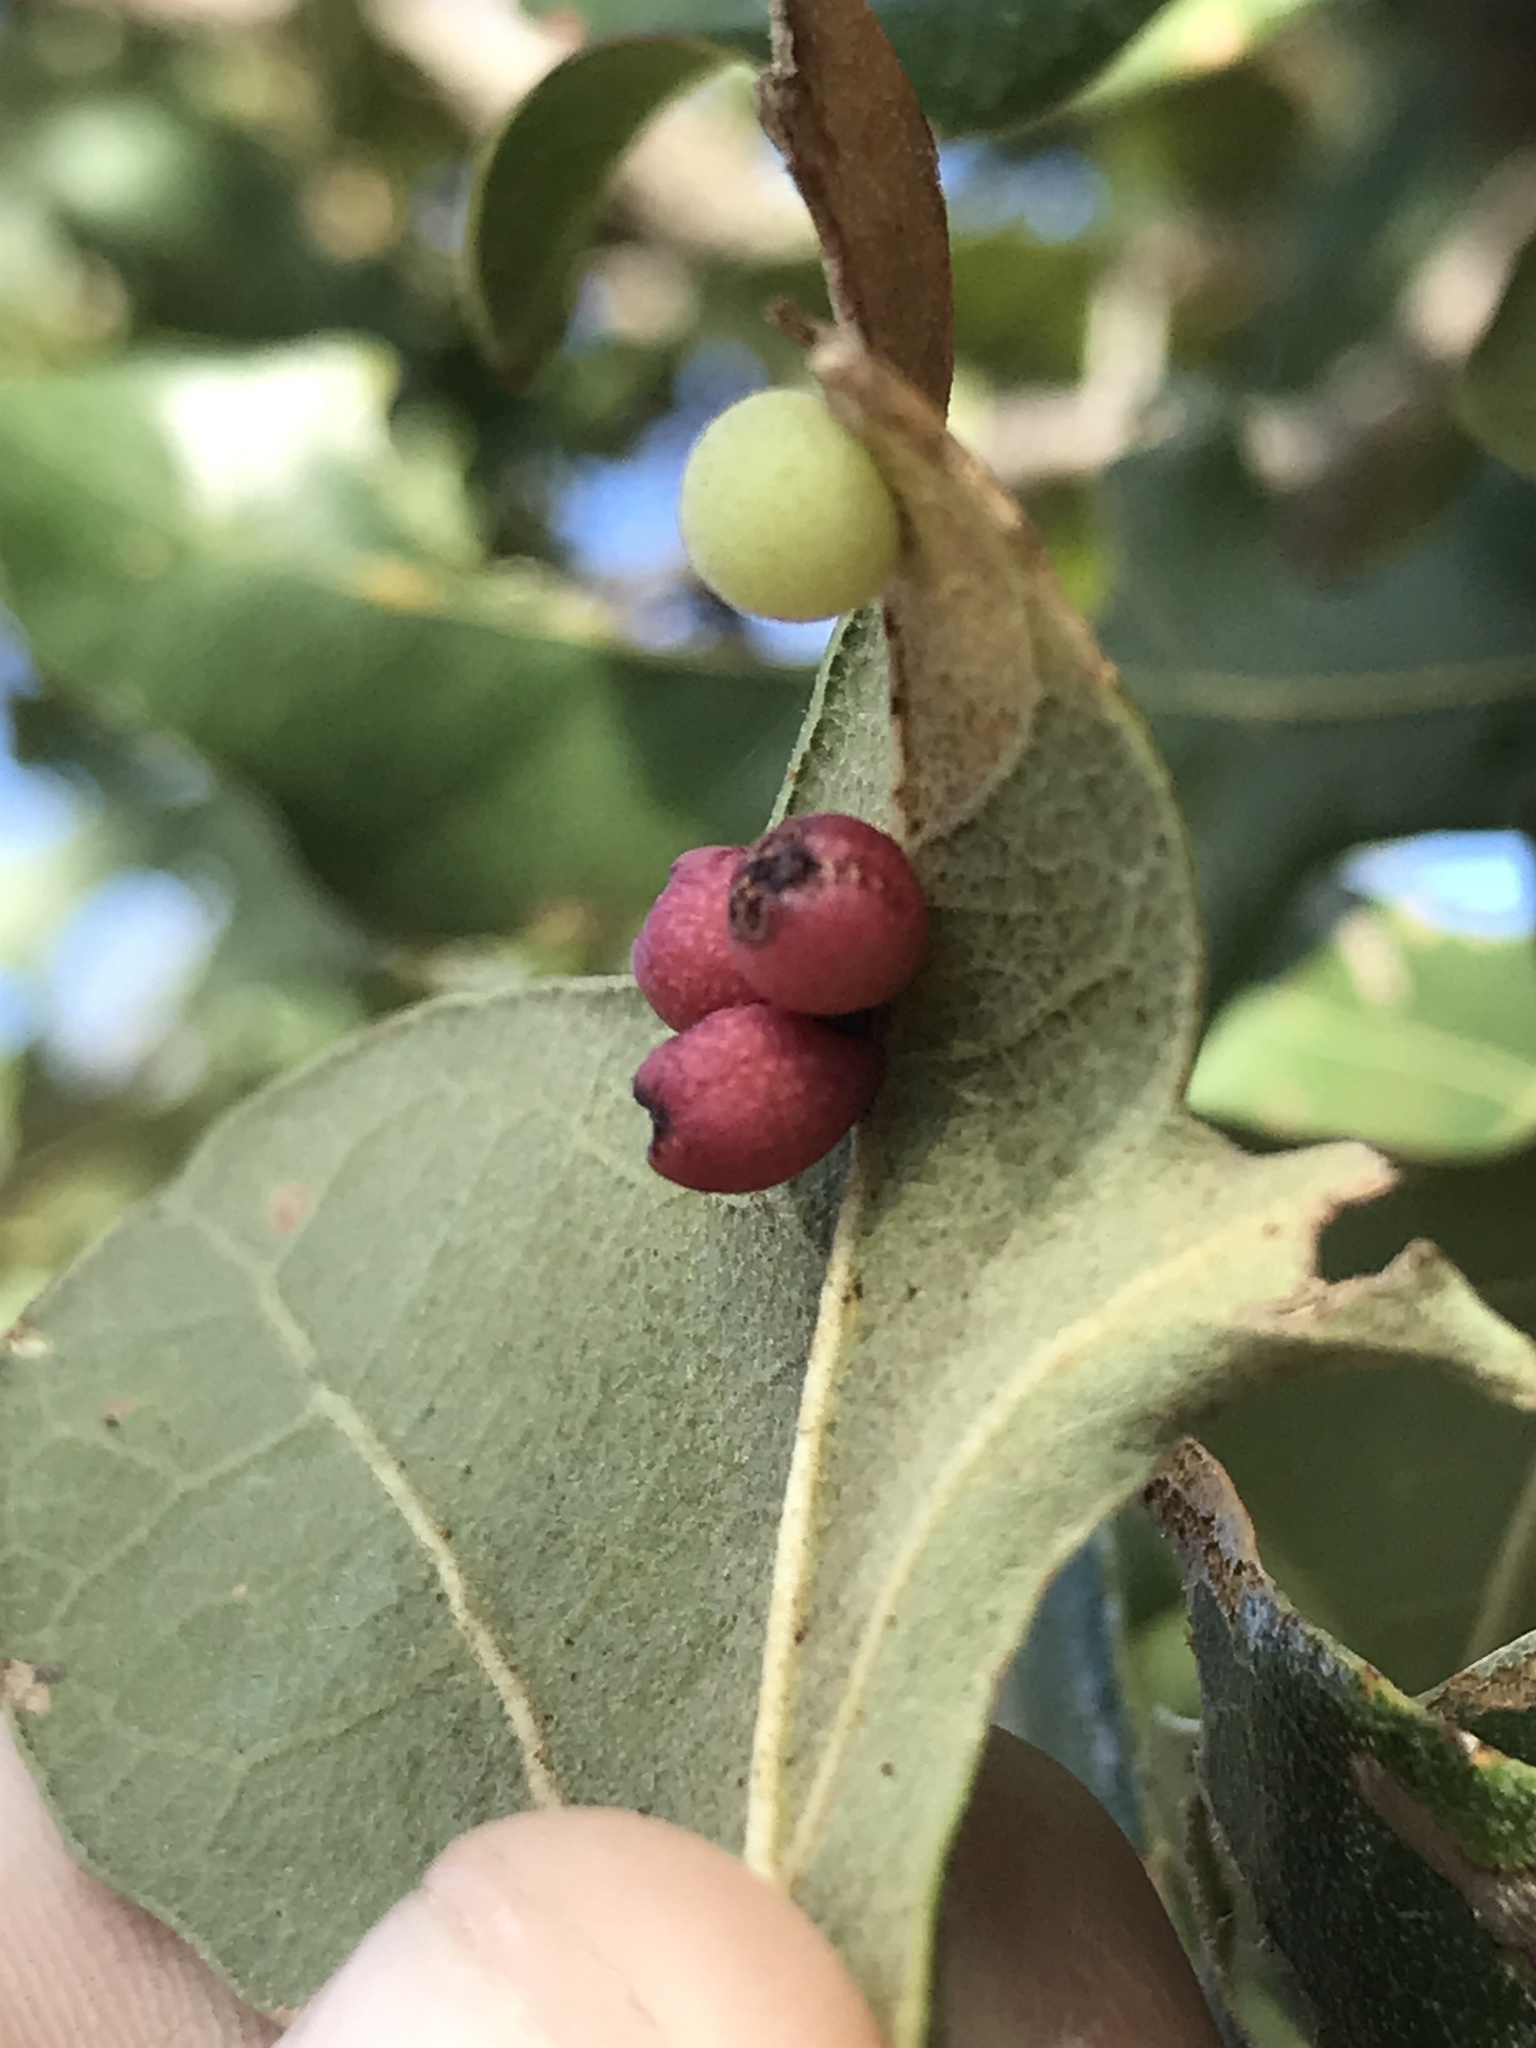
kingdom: Animalia
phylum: Arthropoda
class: Insecta
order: Hymenoptera
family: Cynipidae
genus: Andricus
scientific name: Andricus lustrans
